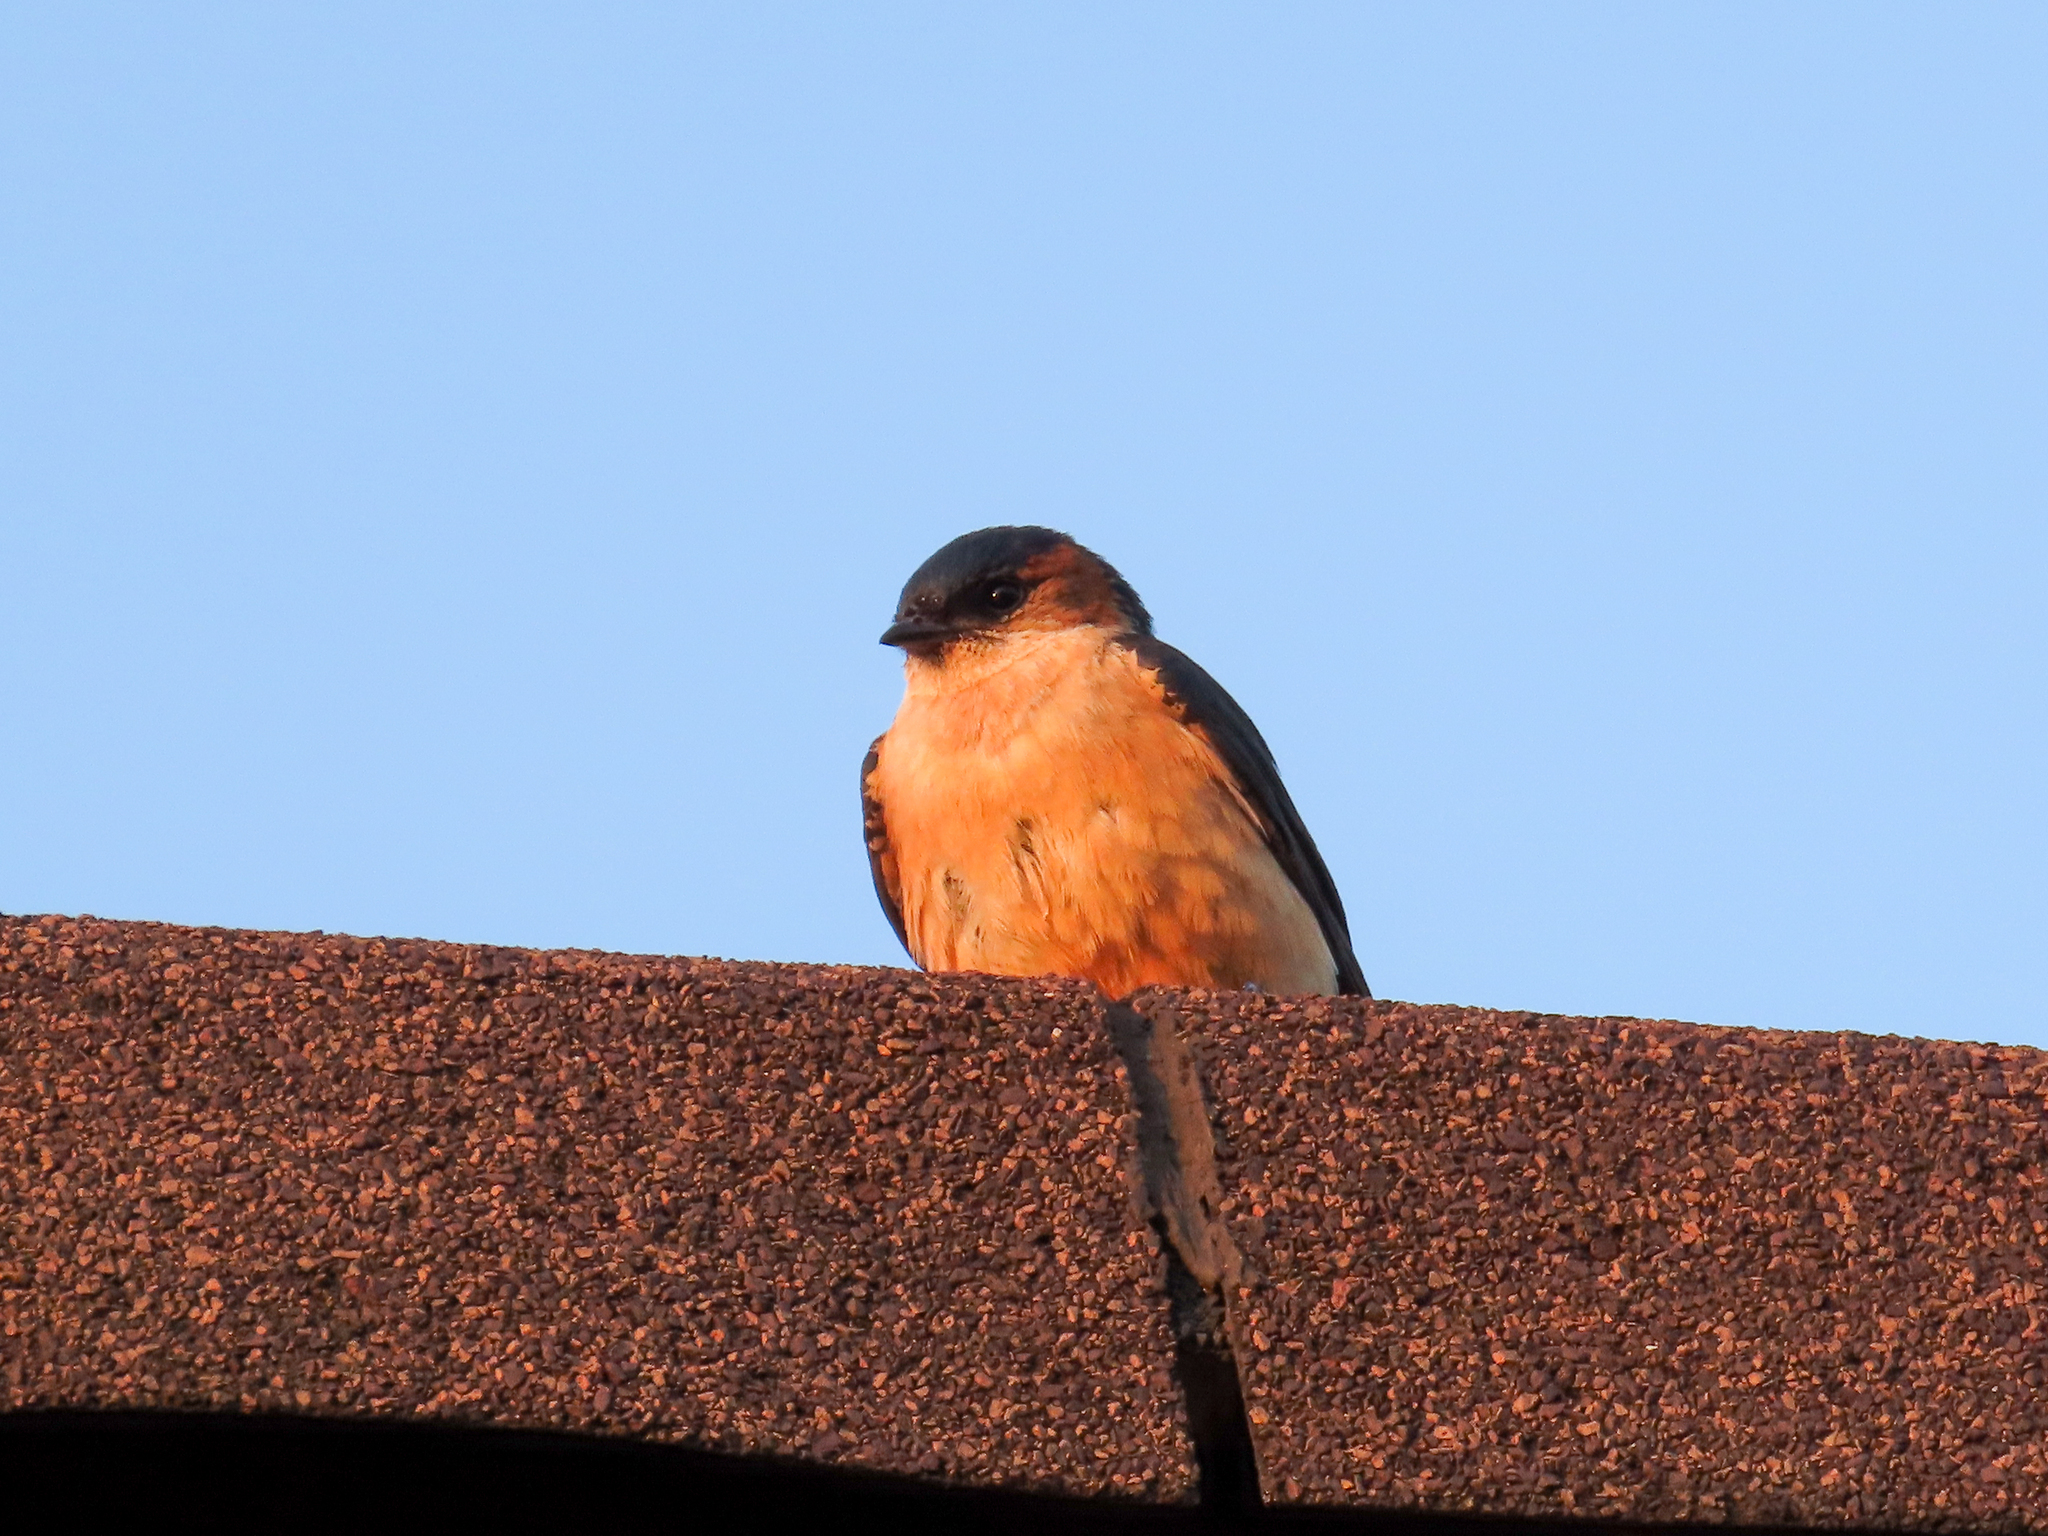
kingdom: Animalia
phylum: Chordata
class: Aves
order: Passeriformes
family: Hirundinidae
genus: Cecropis
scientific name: Cecropis daurica
